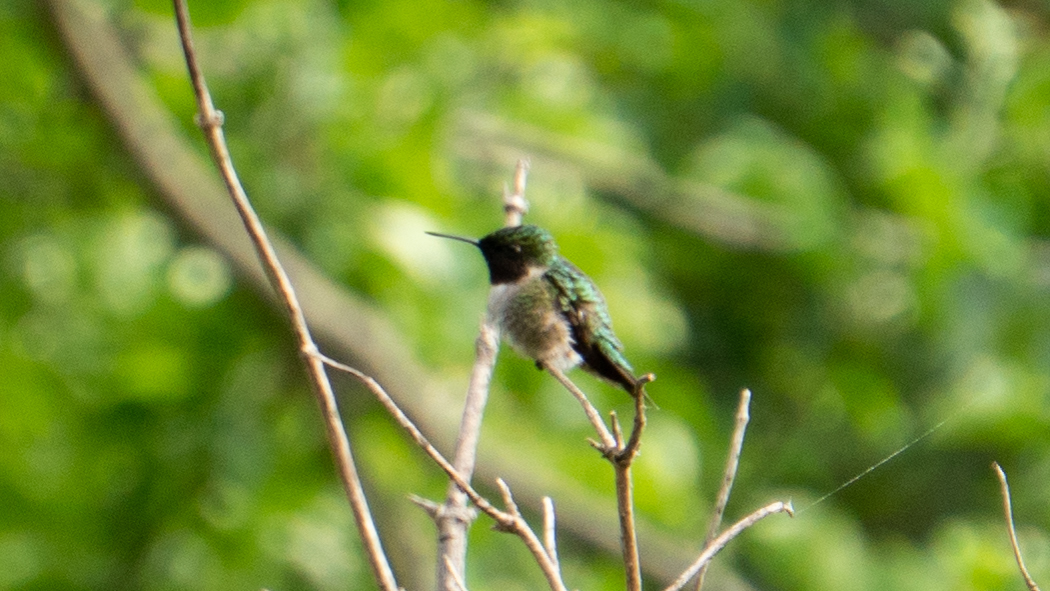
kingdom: Animalia
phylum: Chordata
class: Aves
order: Apodiformes
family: Trochilidae
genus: Archilochus
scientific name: Archilochus colubris
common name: Ruby-throated hummingbird
